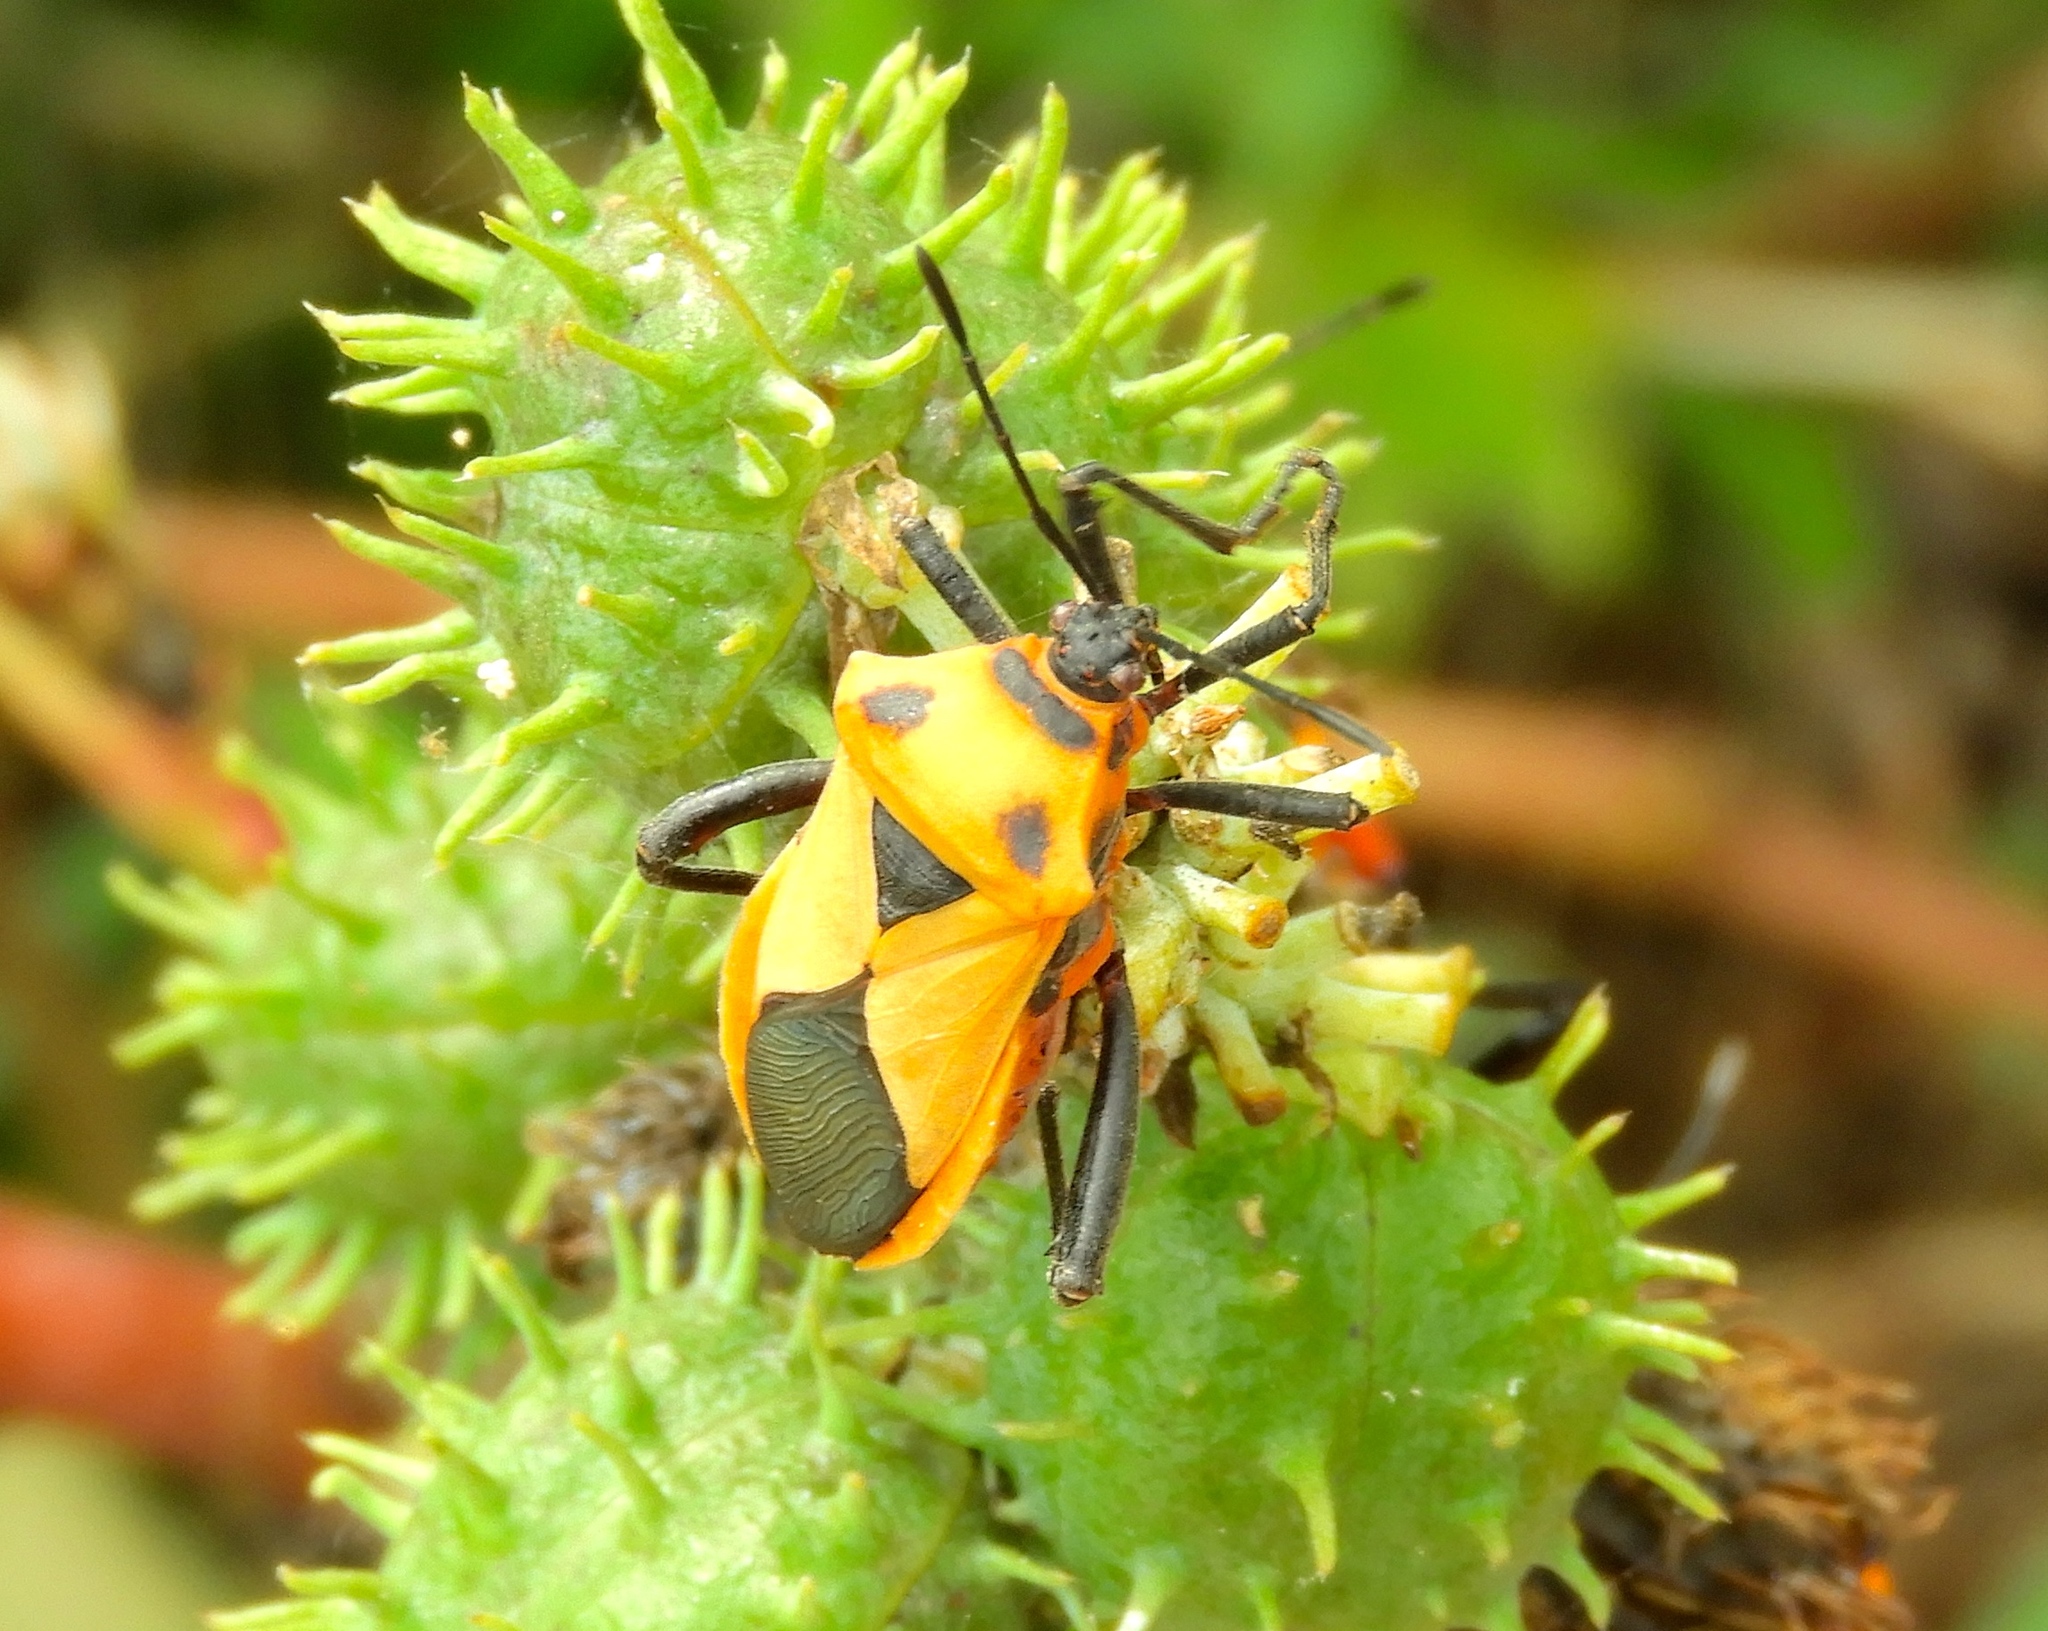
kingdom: Animalia
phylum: Arthropoda
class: Insecta
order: Hemiptera
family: Coreidae
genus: Sagotylus
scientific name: Sagotylus confluens
